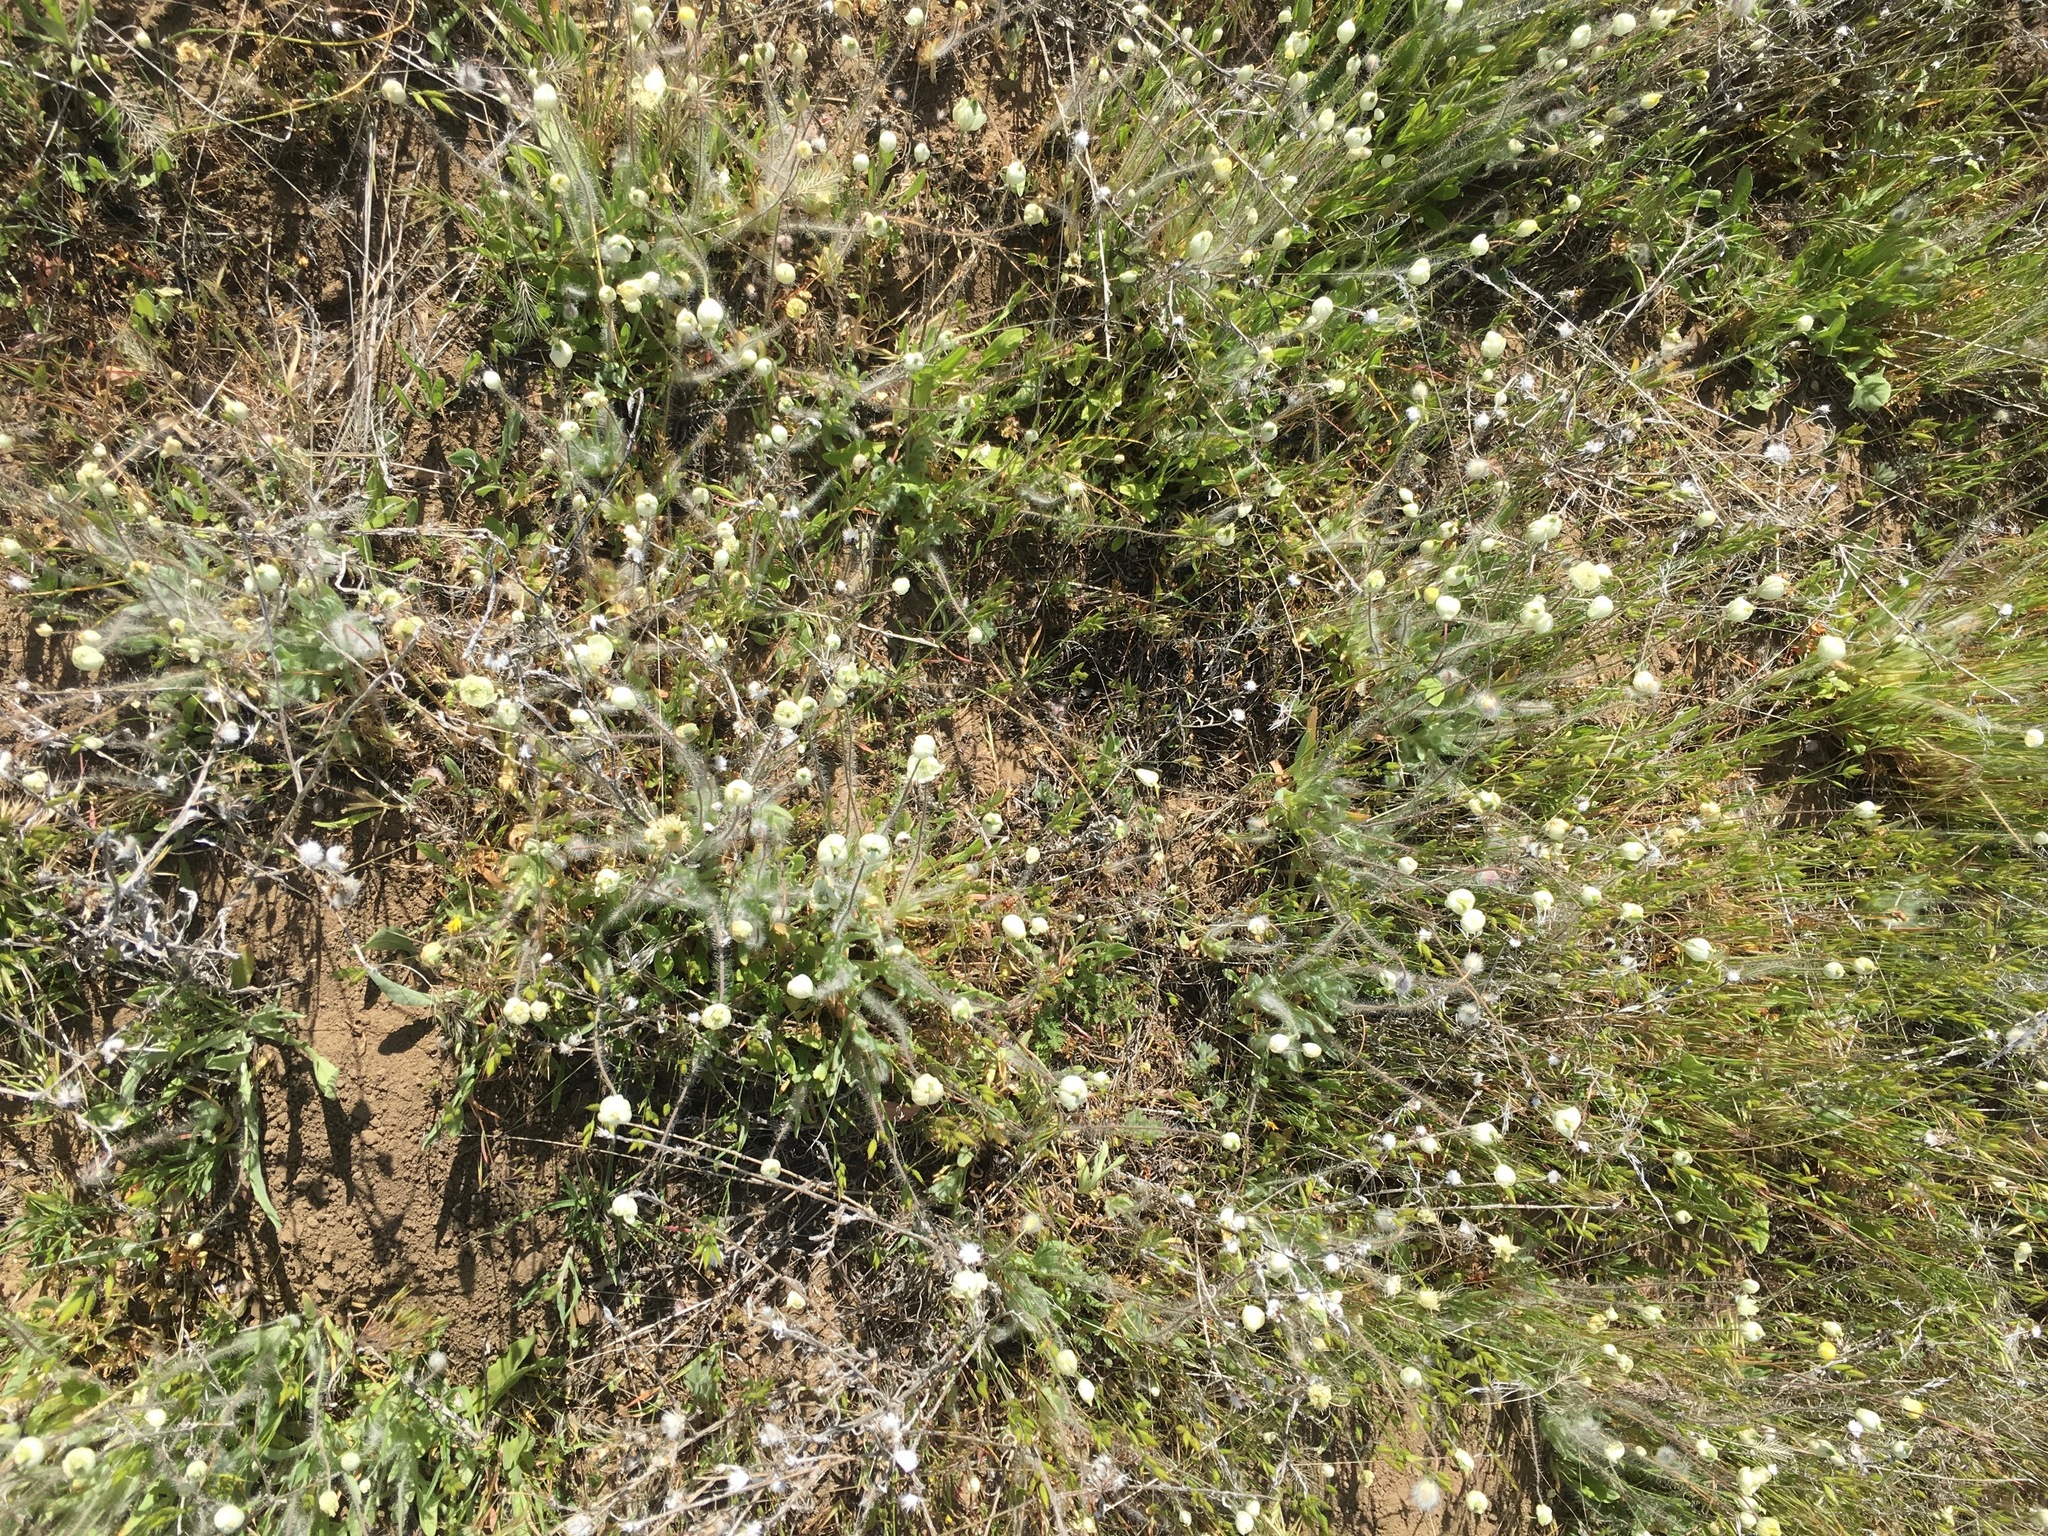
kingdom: Plantae
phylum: Tracheophyta
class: Magnoliopsida
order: Ranunculales
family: Papaveraceae
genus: Platystemon
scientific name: Platystemon californicus
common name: Cream-cups
